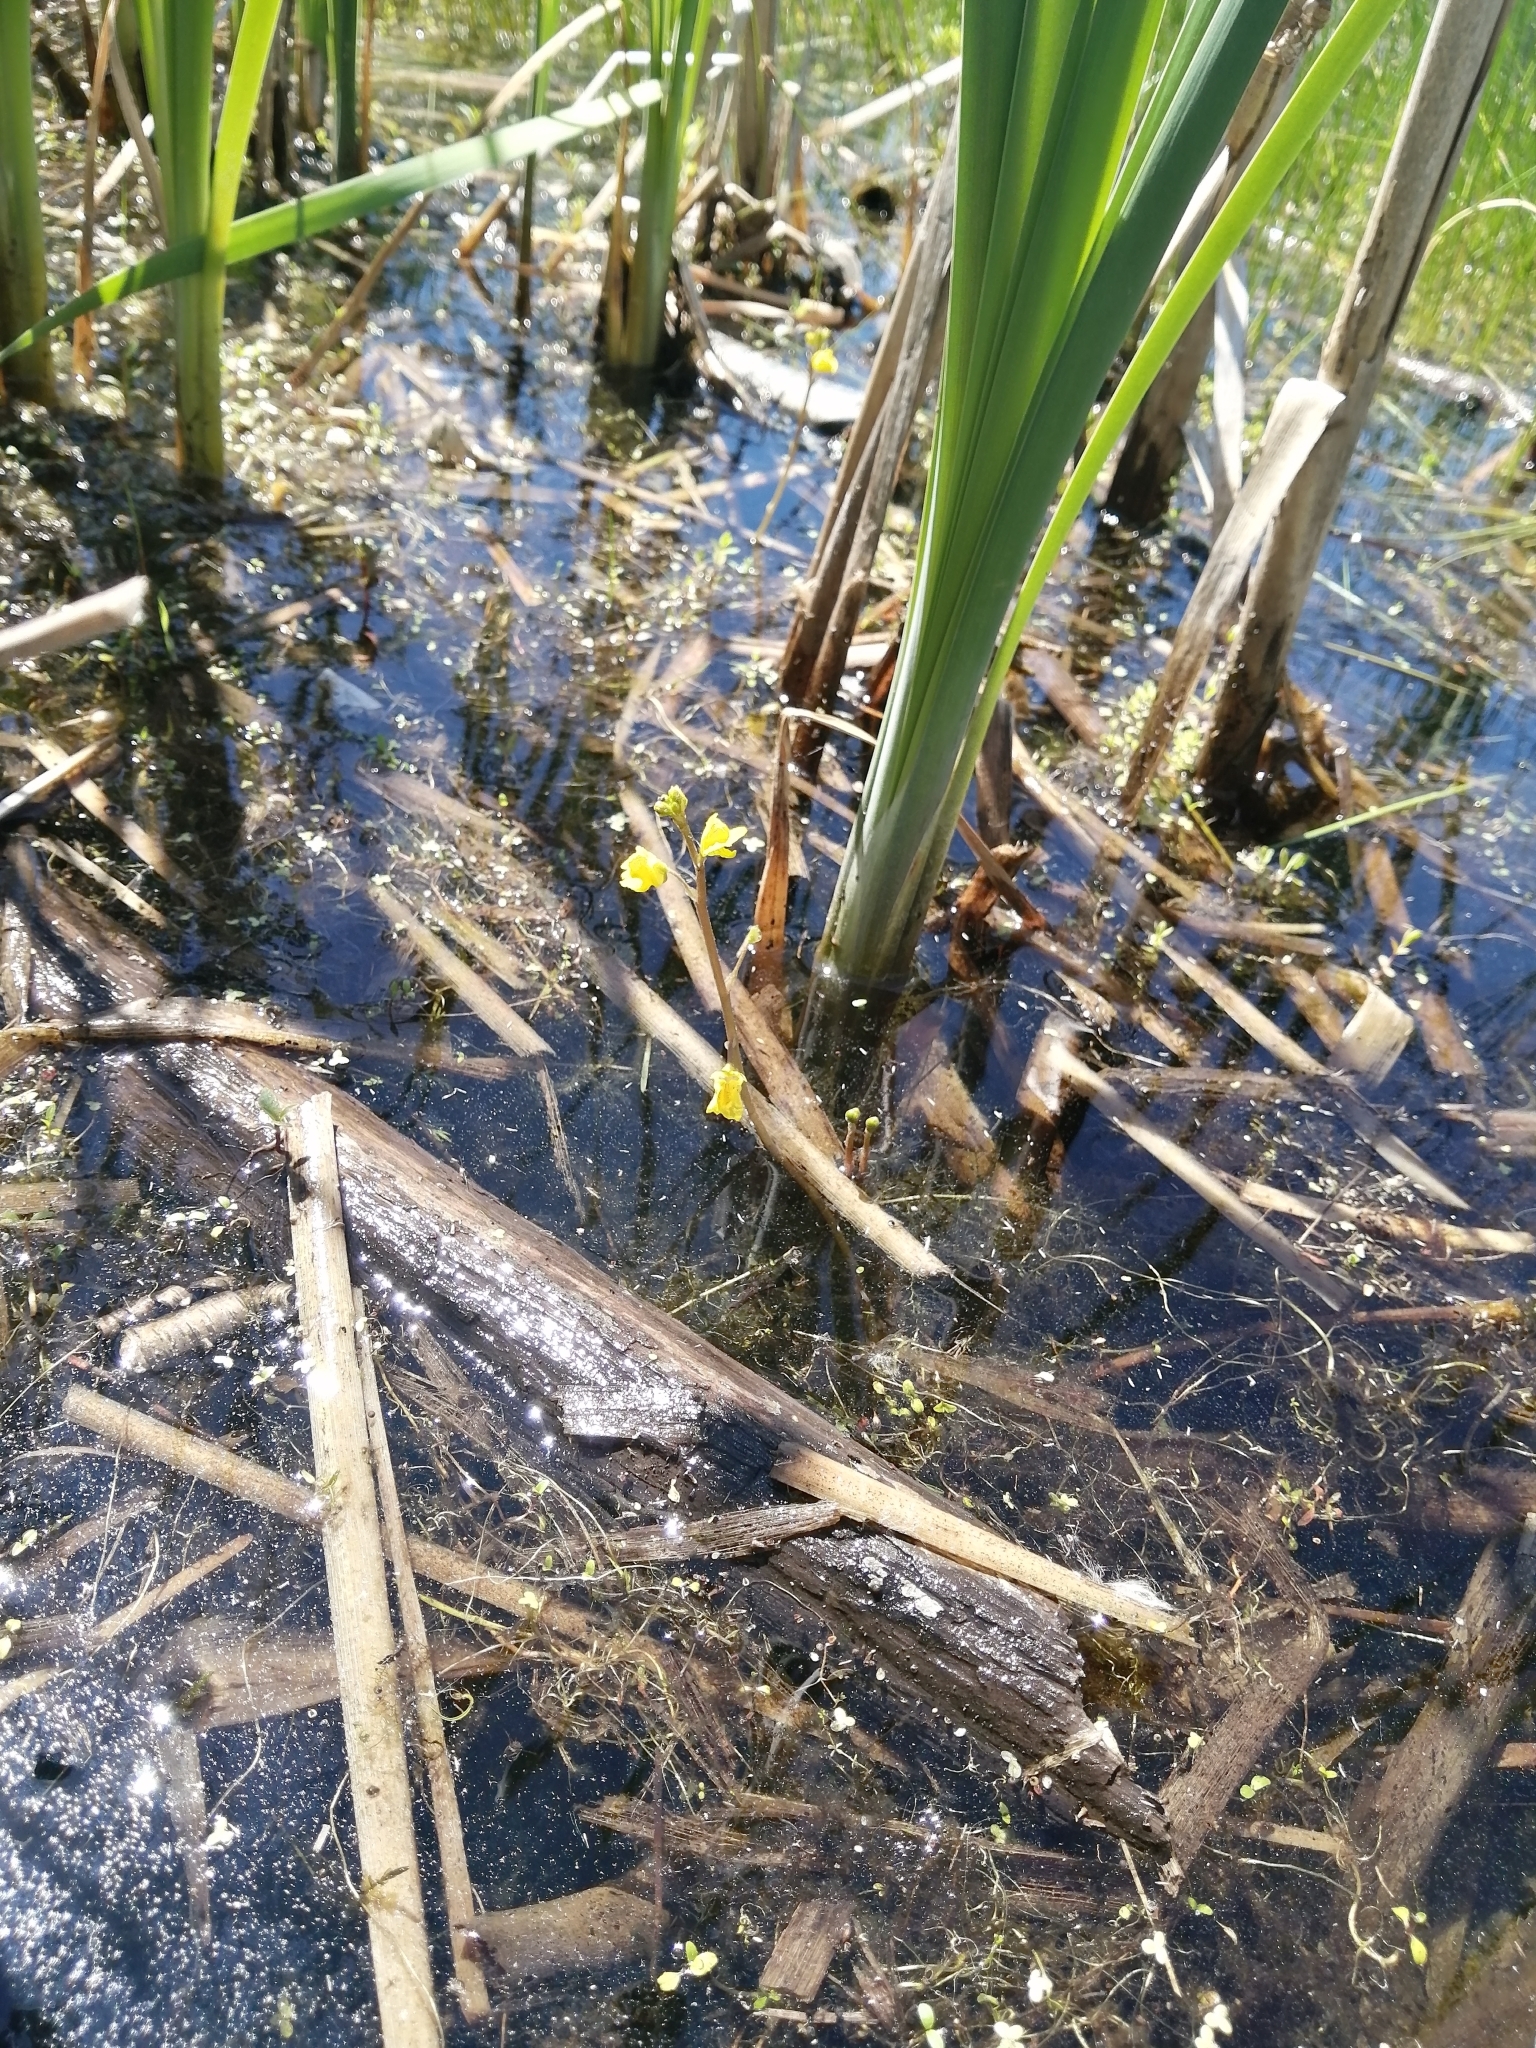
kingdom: Plantae
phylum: Tracheophyta
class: Magnoliopsida
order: Lamiales
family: Lentibulariaceae
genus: Utricularia
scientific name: Utricularia macrorhiza
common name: Common bladderwort
